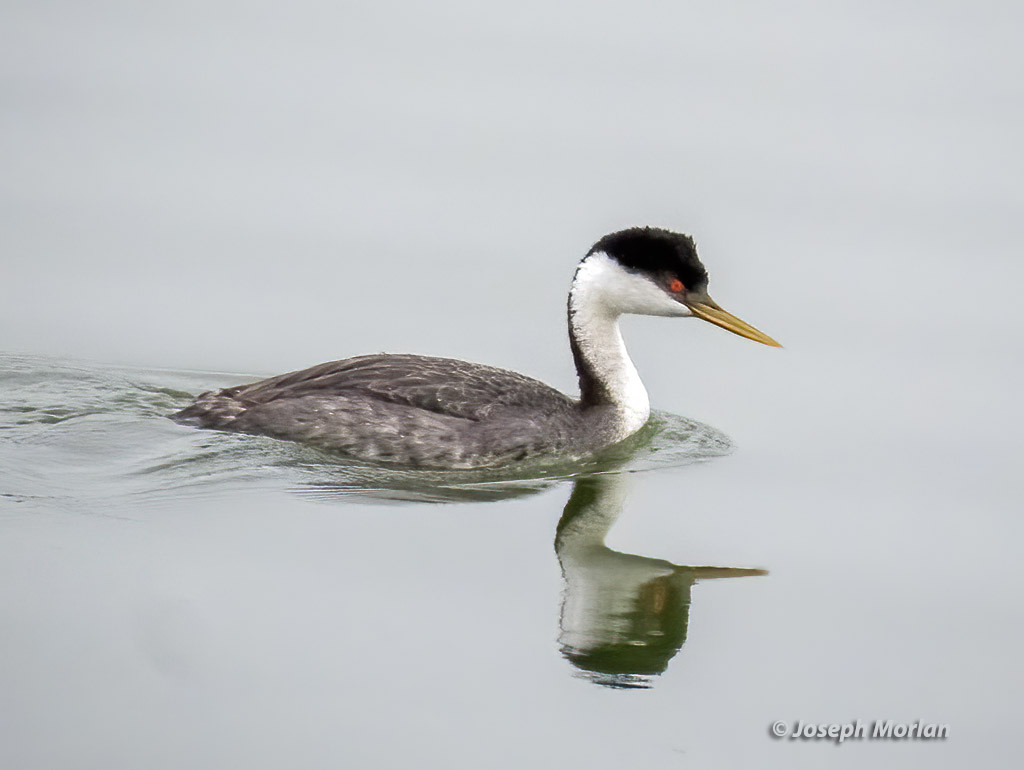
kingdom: Animalia
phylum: Chordata
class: Aves
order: Podicipediformes
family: Podicipedidae
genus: Aechmophorus
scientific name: Aechmophorus occidentalis
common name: Western grebe
